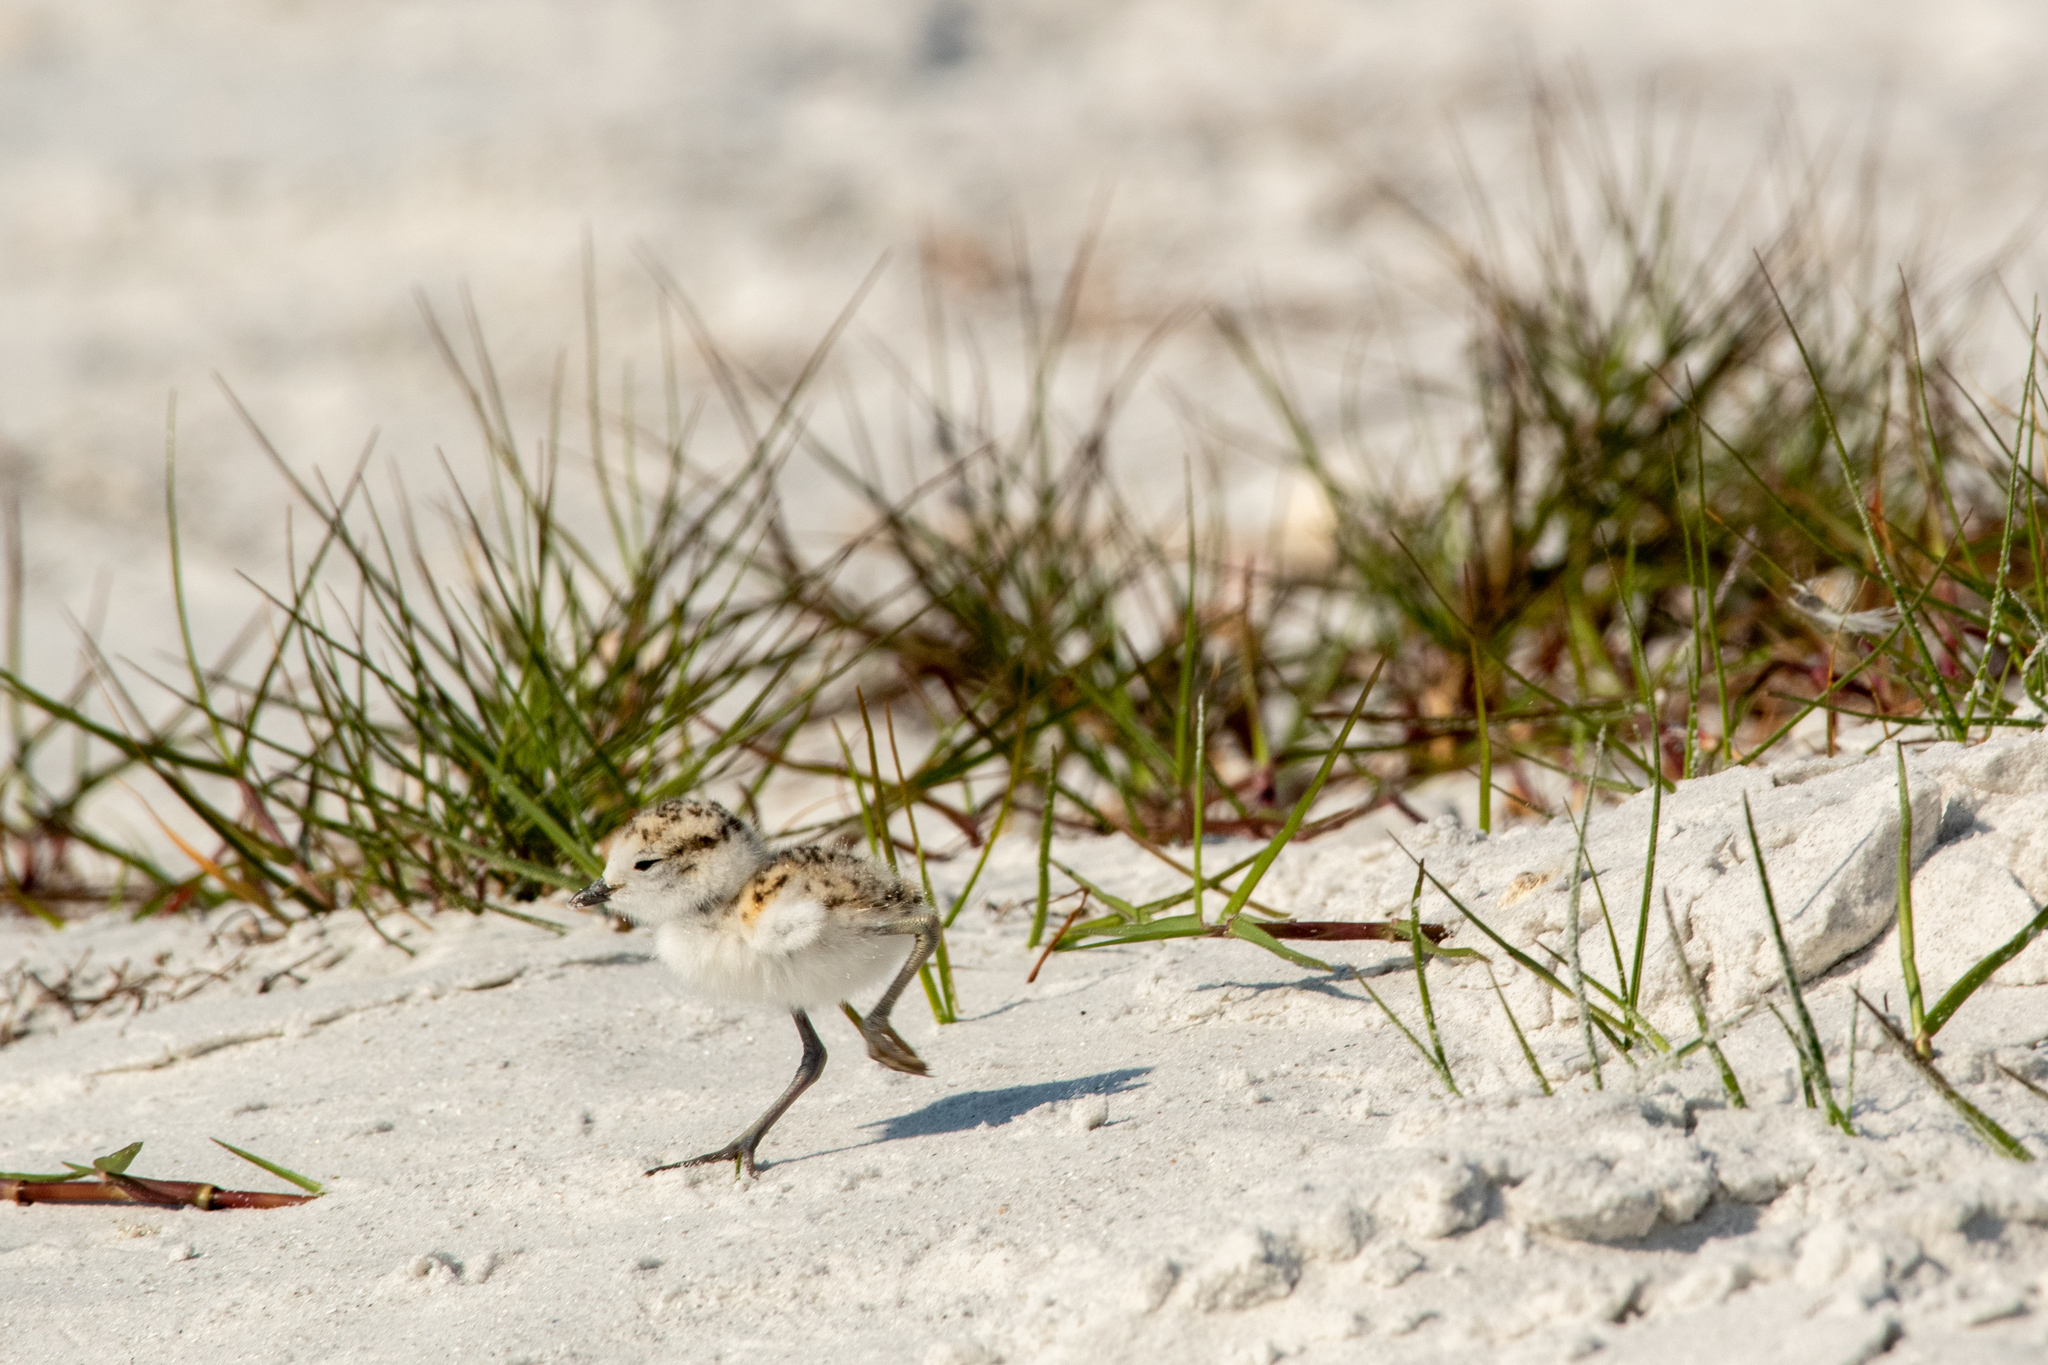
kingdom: Animalia
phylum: Chordata
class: Aves
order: Charadriiformes
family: Charadriidae
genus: Anarhynchus
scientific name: Anarhynchus
